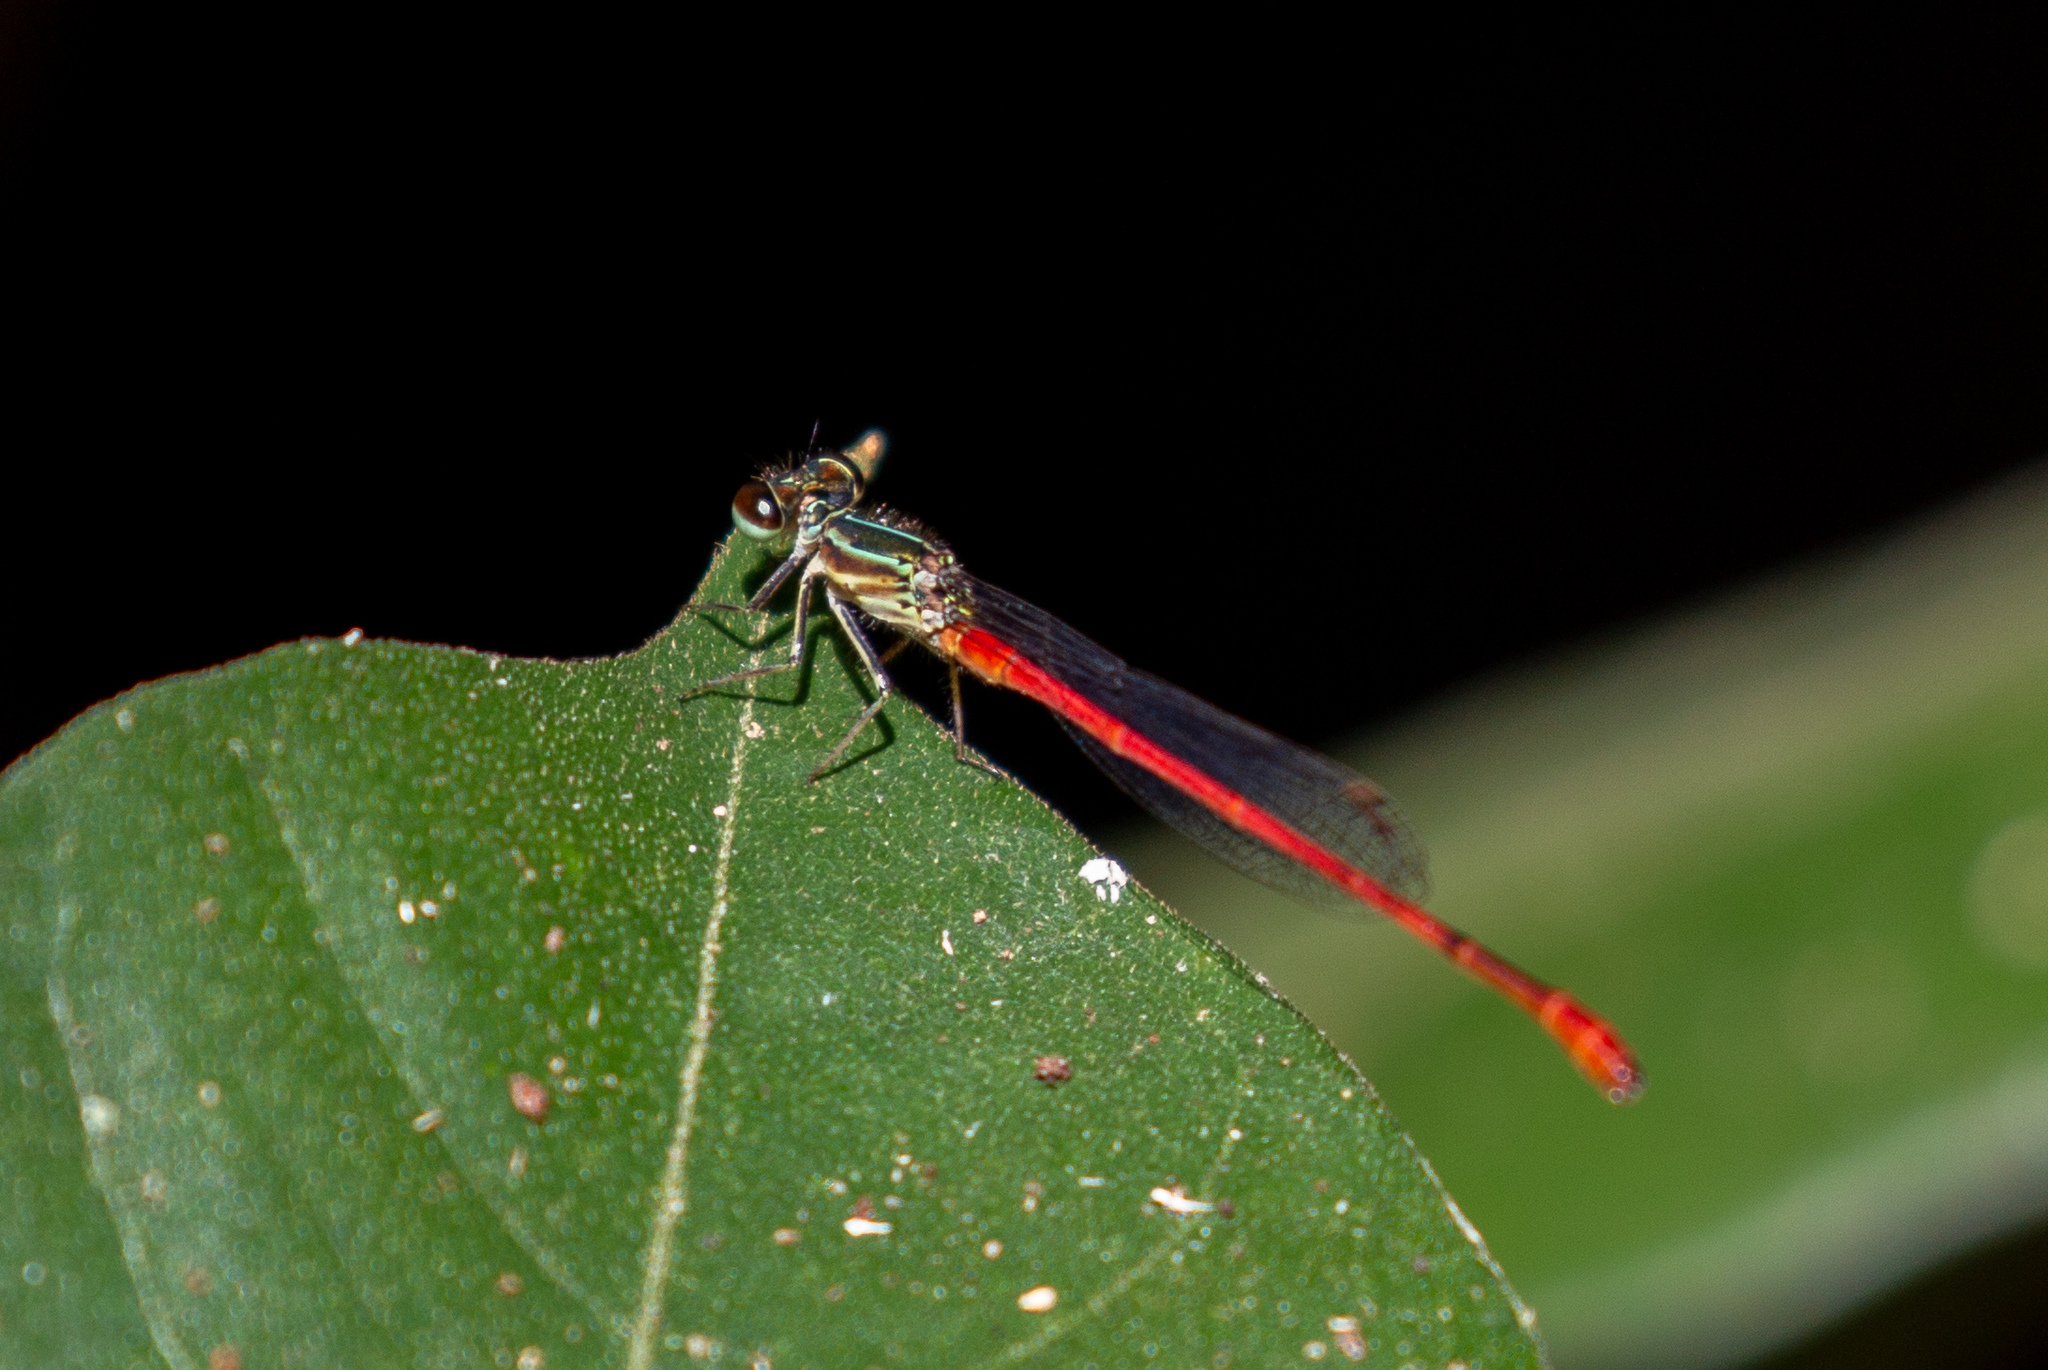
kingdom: Animalia
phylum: Arthropoda
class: Insecta
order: Odonata
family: Coenagrionidae
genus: Telebasis
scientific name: Telebasis filiola
